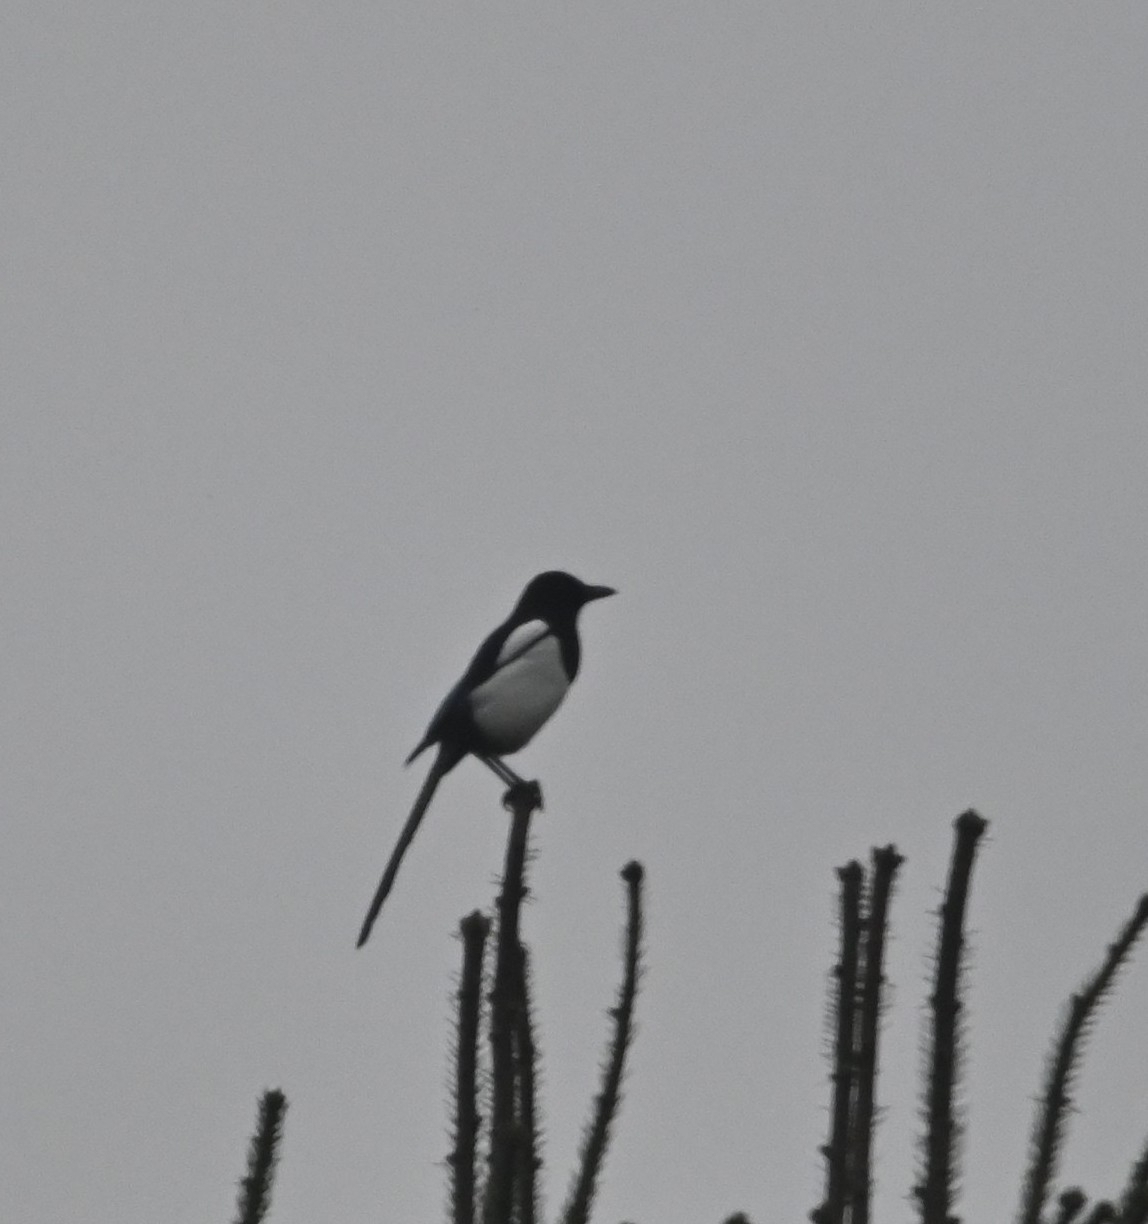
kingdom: Animalia
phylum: Chordata
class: Aves
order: Passeriformes
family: Corvidae
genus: Pica
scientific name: Pica pica
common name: Eurasian magpie
